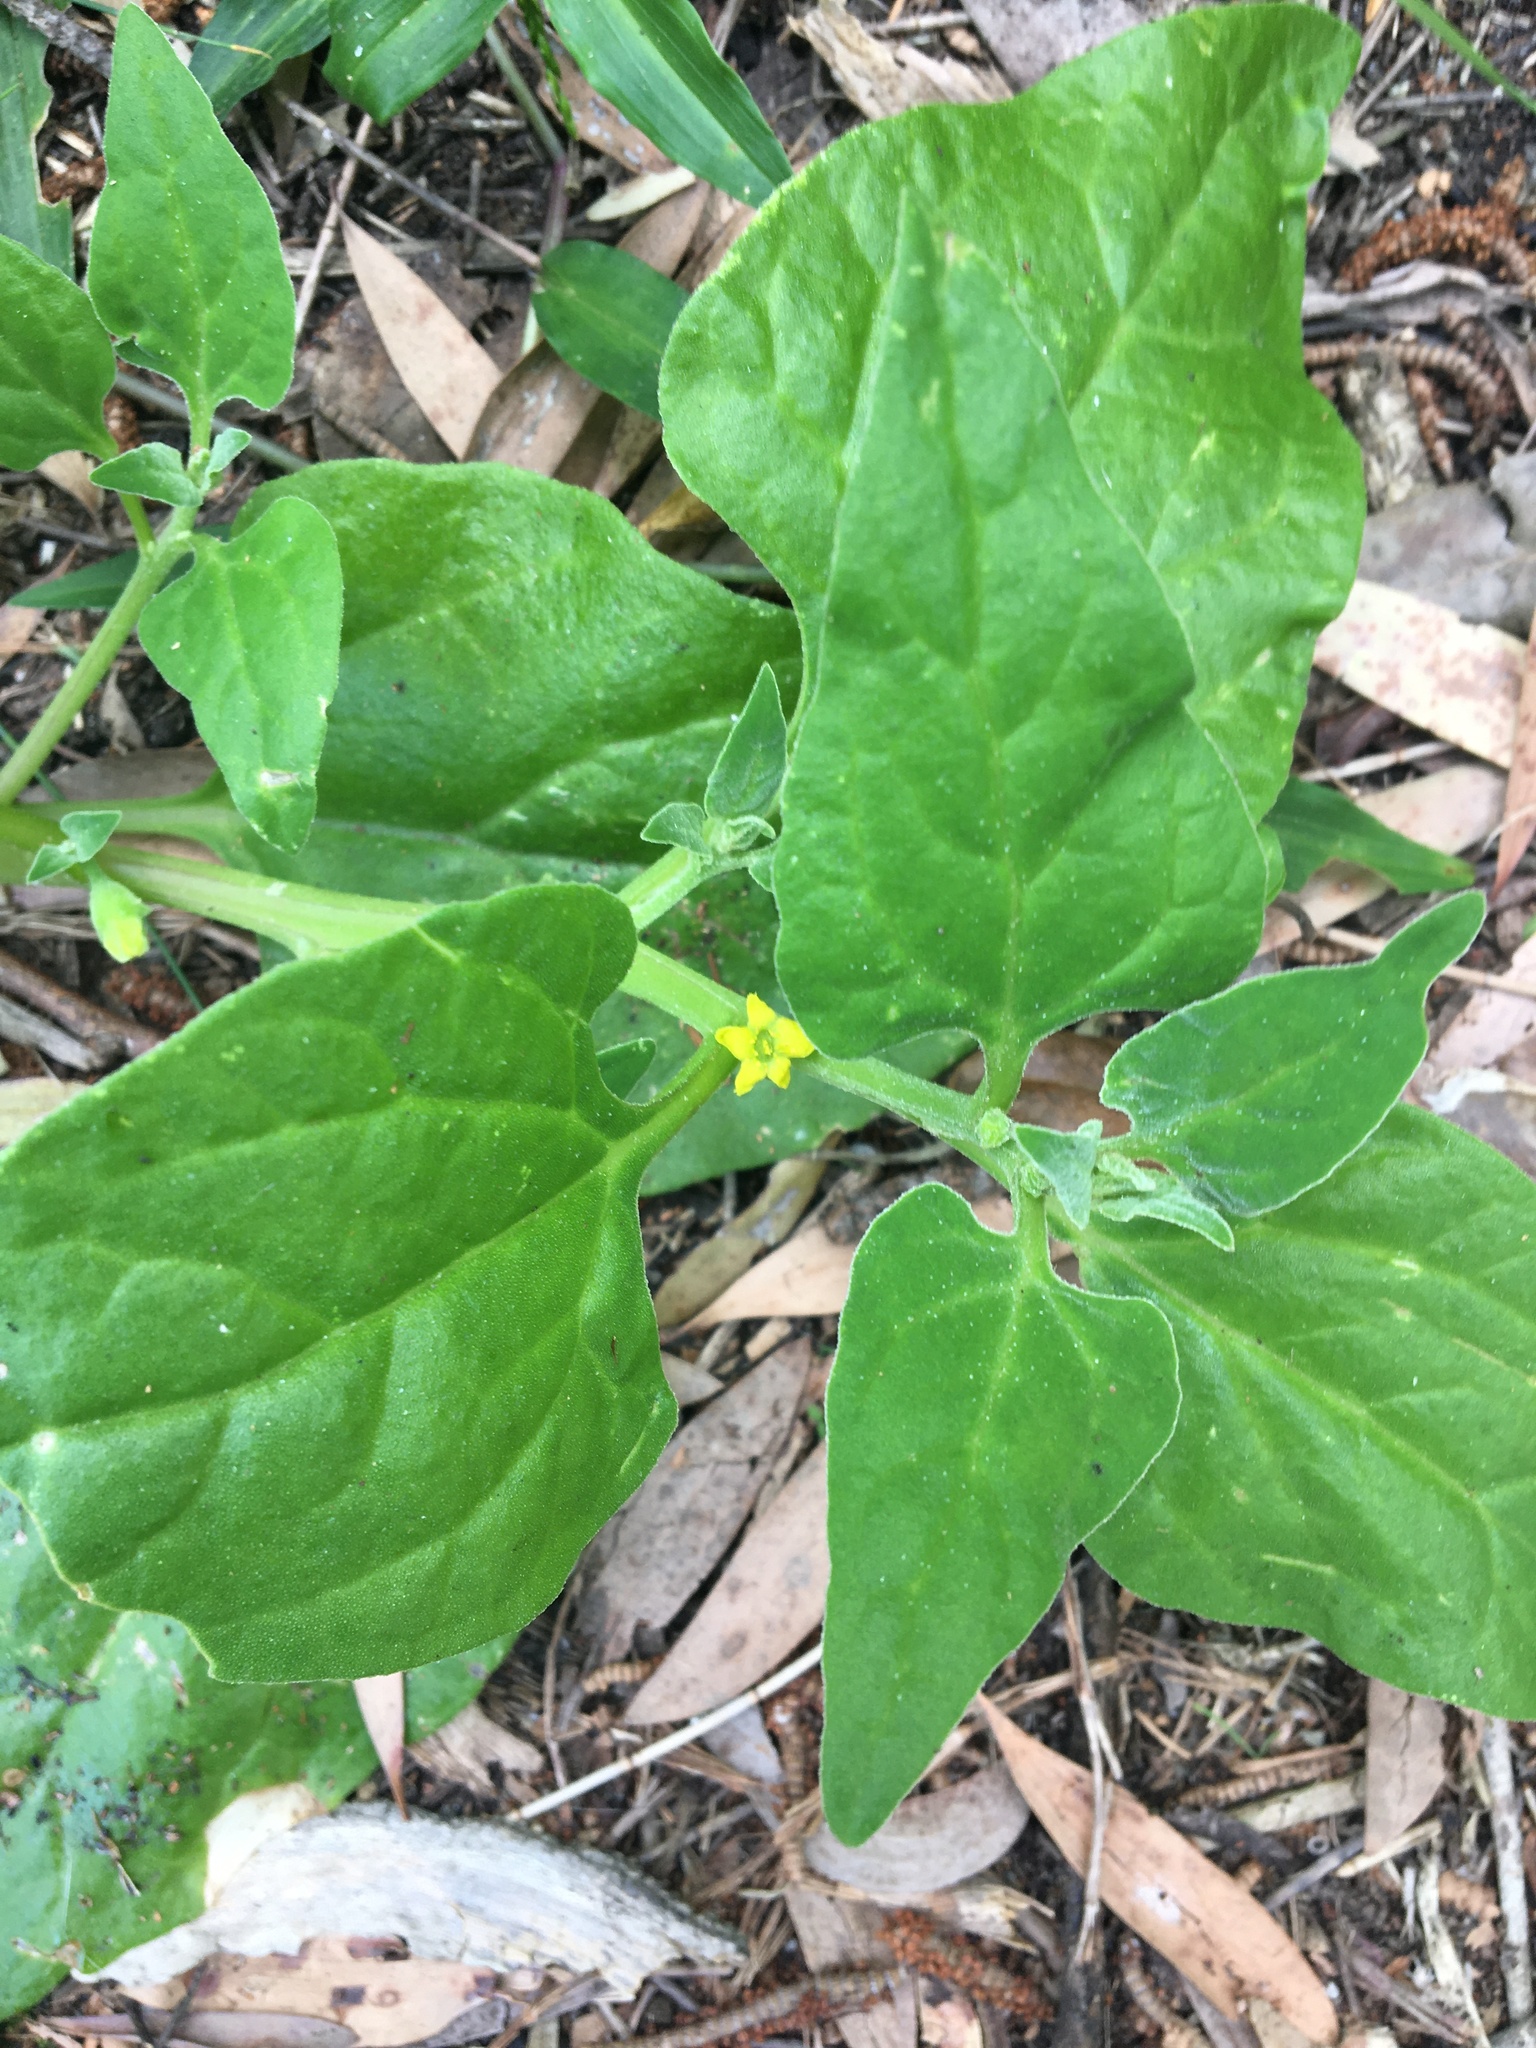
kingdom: Plantae
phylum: Tracheophyta
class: Magnoliopsida
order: Caryophyllales
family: Aizoaceae
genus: Tetragonia
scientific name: Tetragonia tetragonoides
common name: New zealand-spinach
